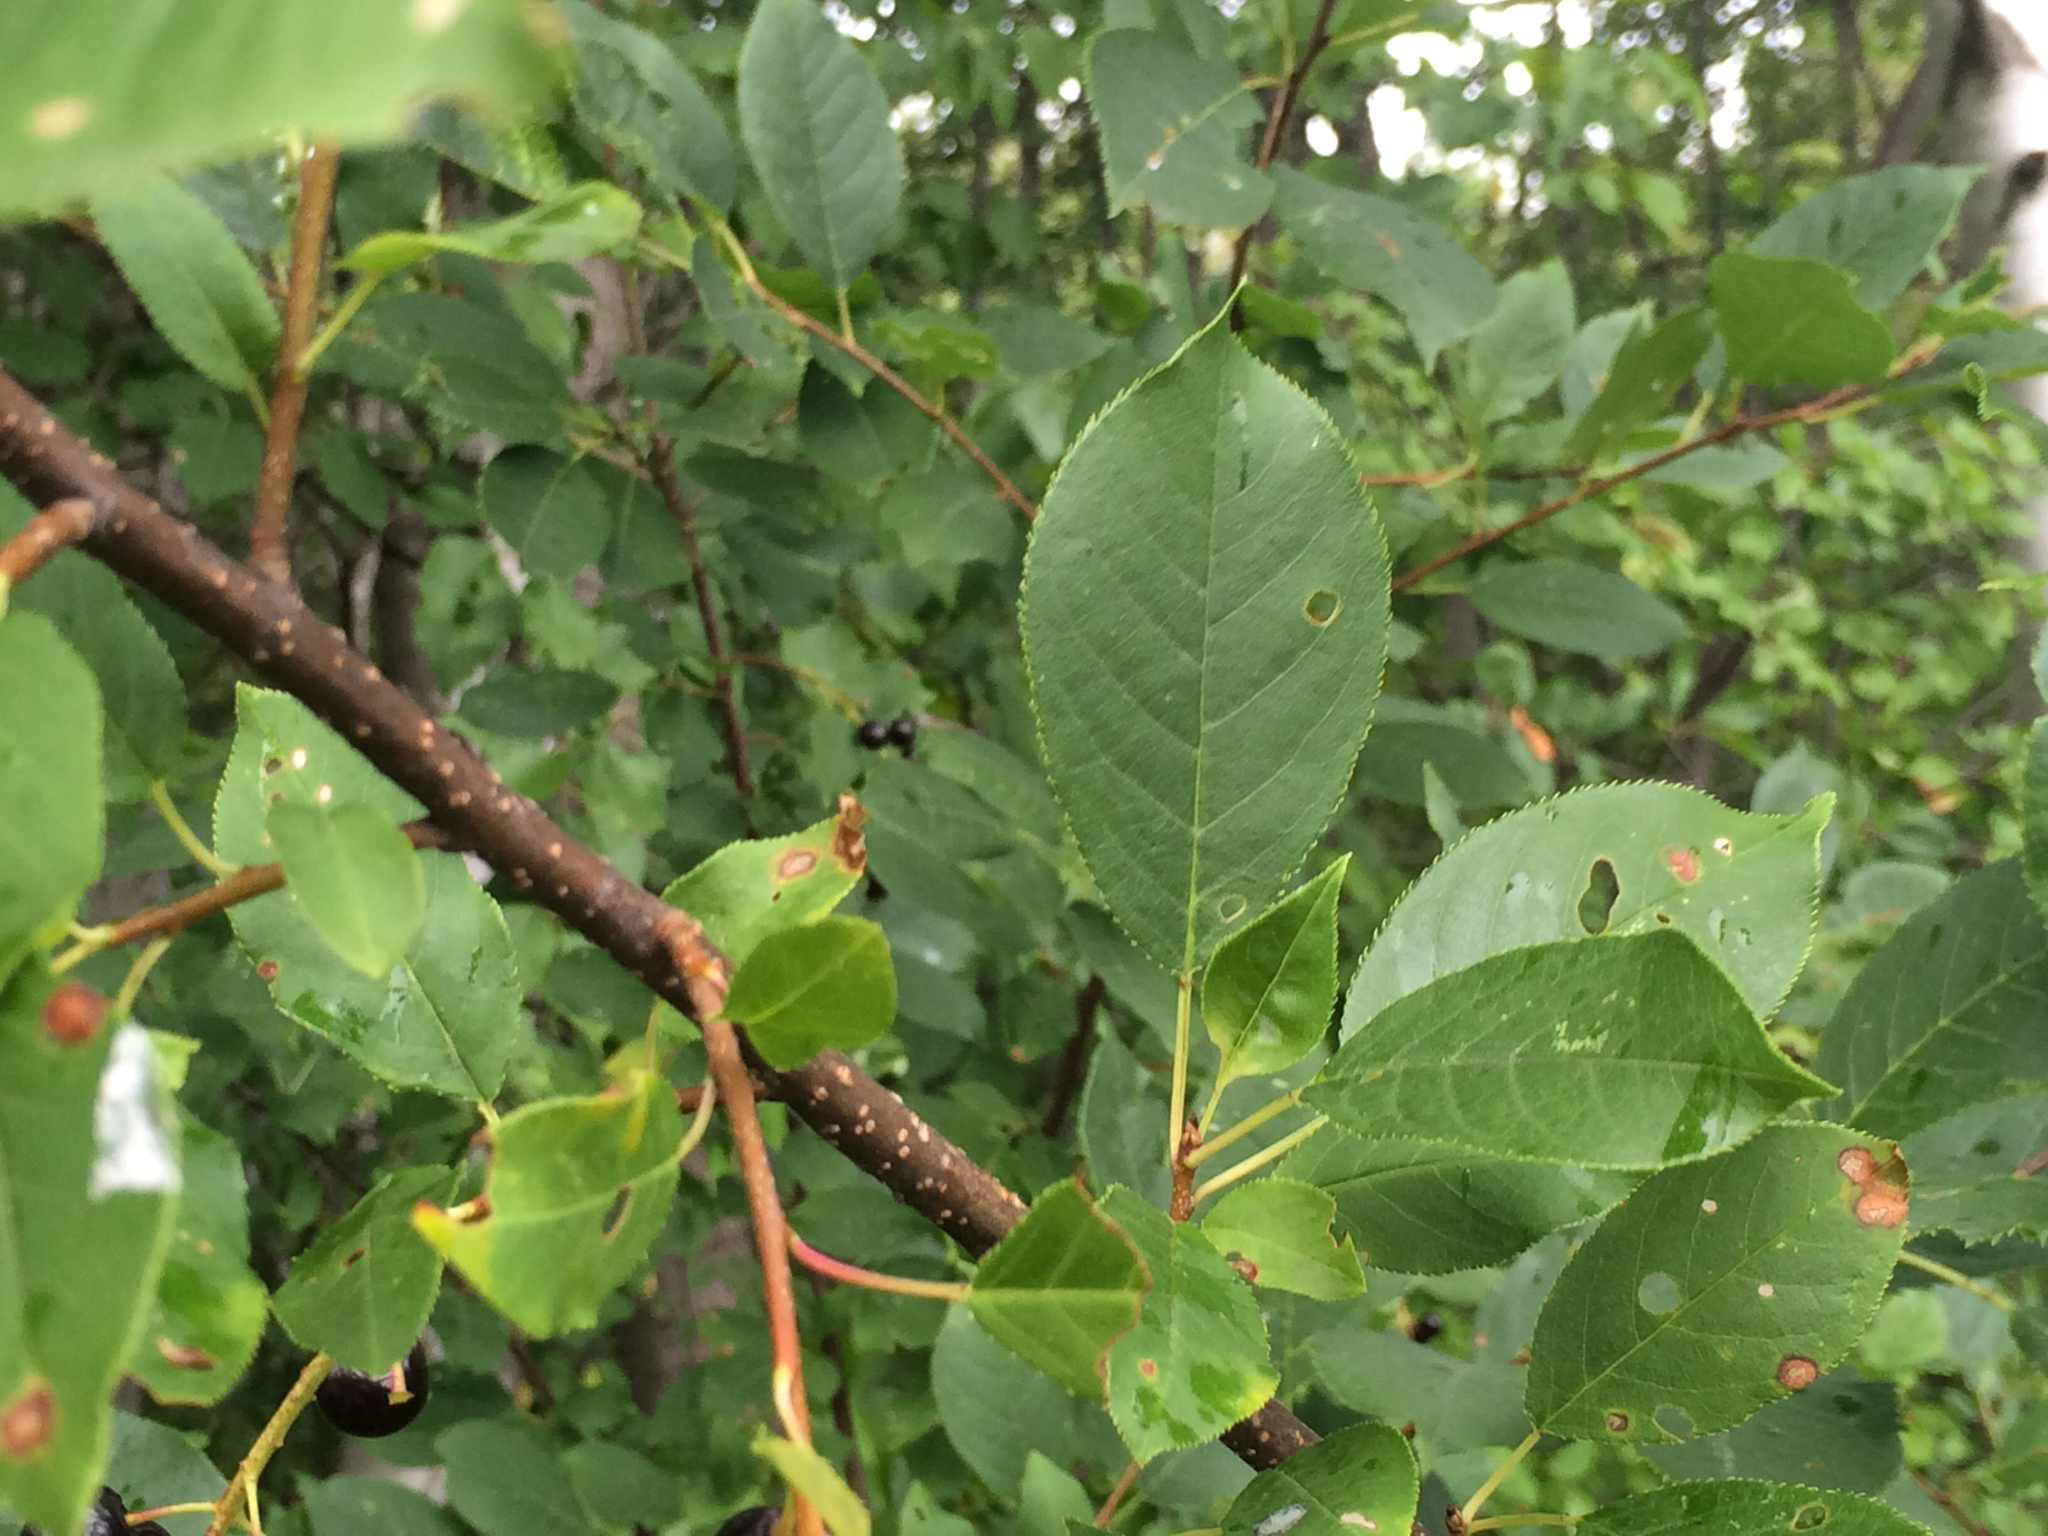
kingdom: Plantae
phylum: Tracheophyta
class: Magnoliopsida
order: Rosales
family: Rosaceae
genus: Prunus
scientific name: Prunus virginiana
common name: Chokecherry
